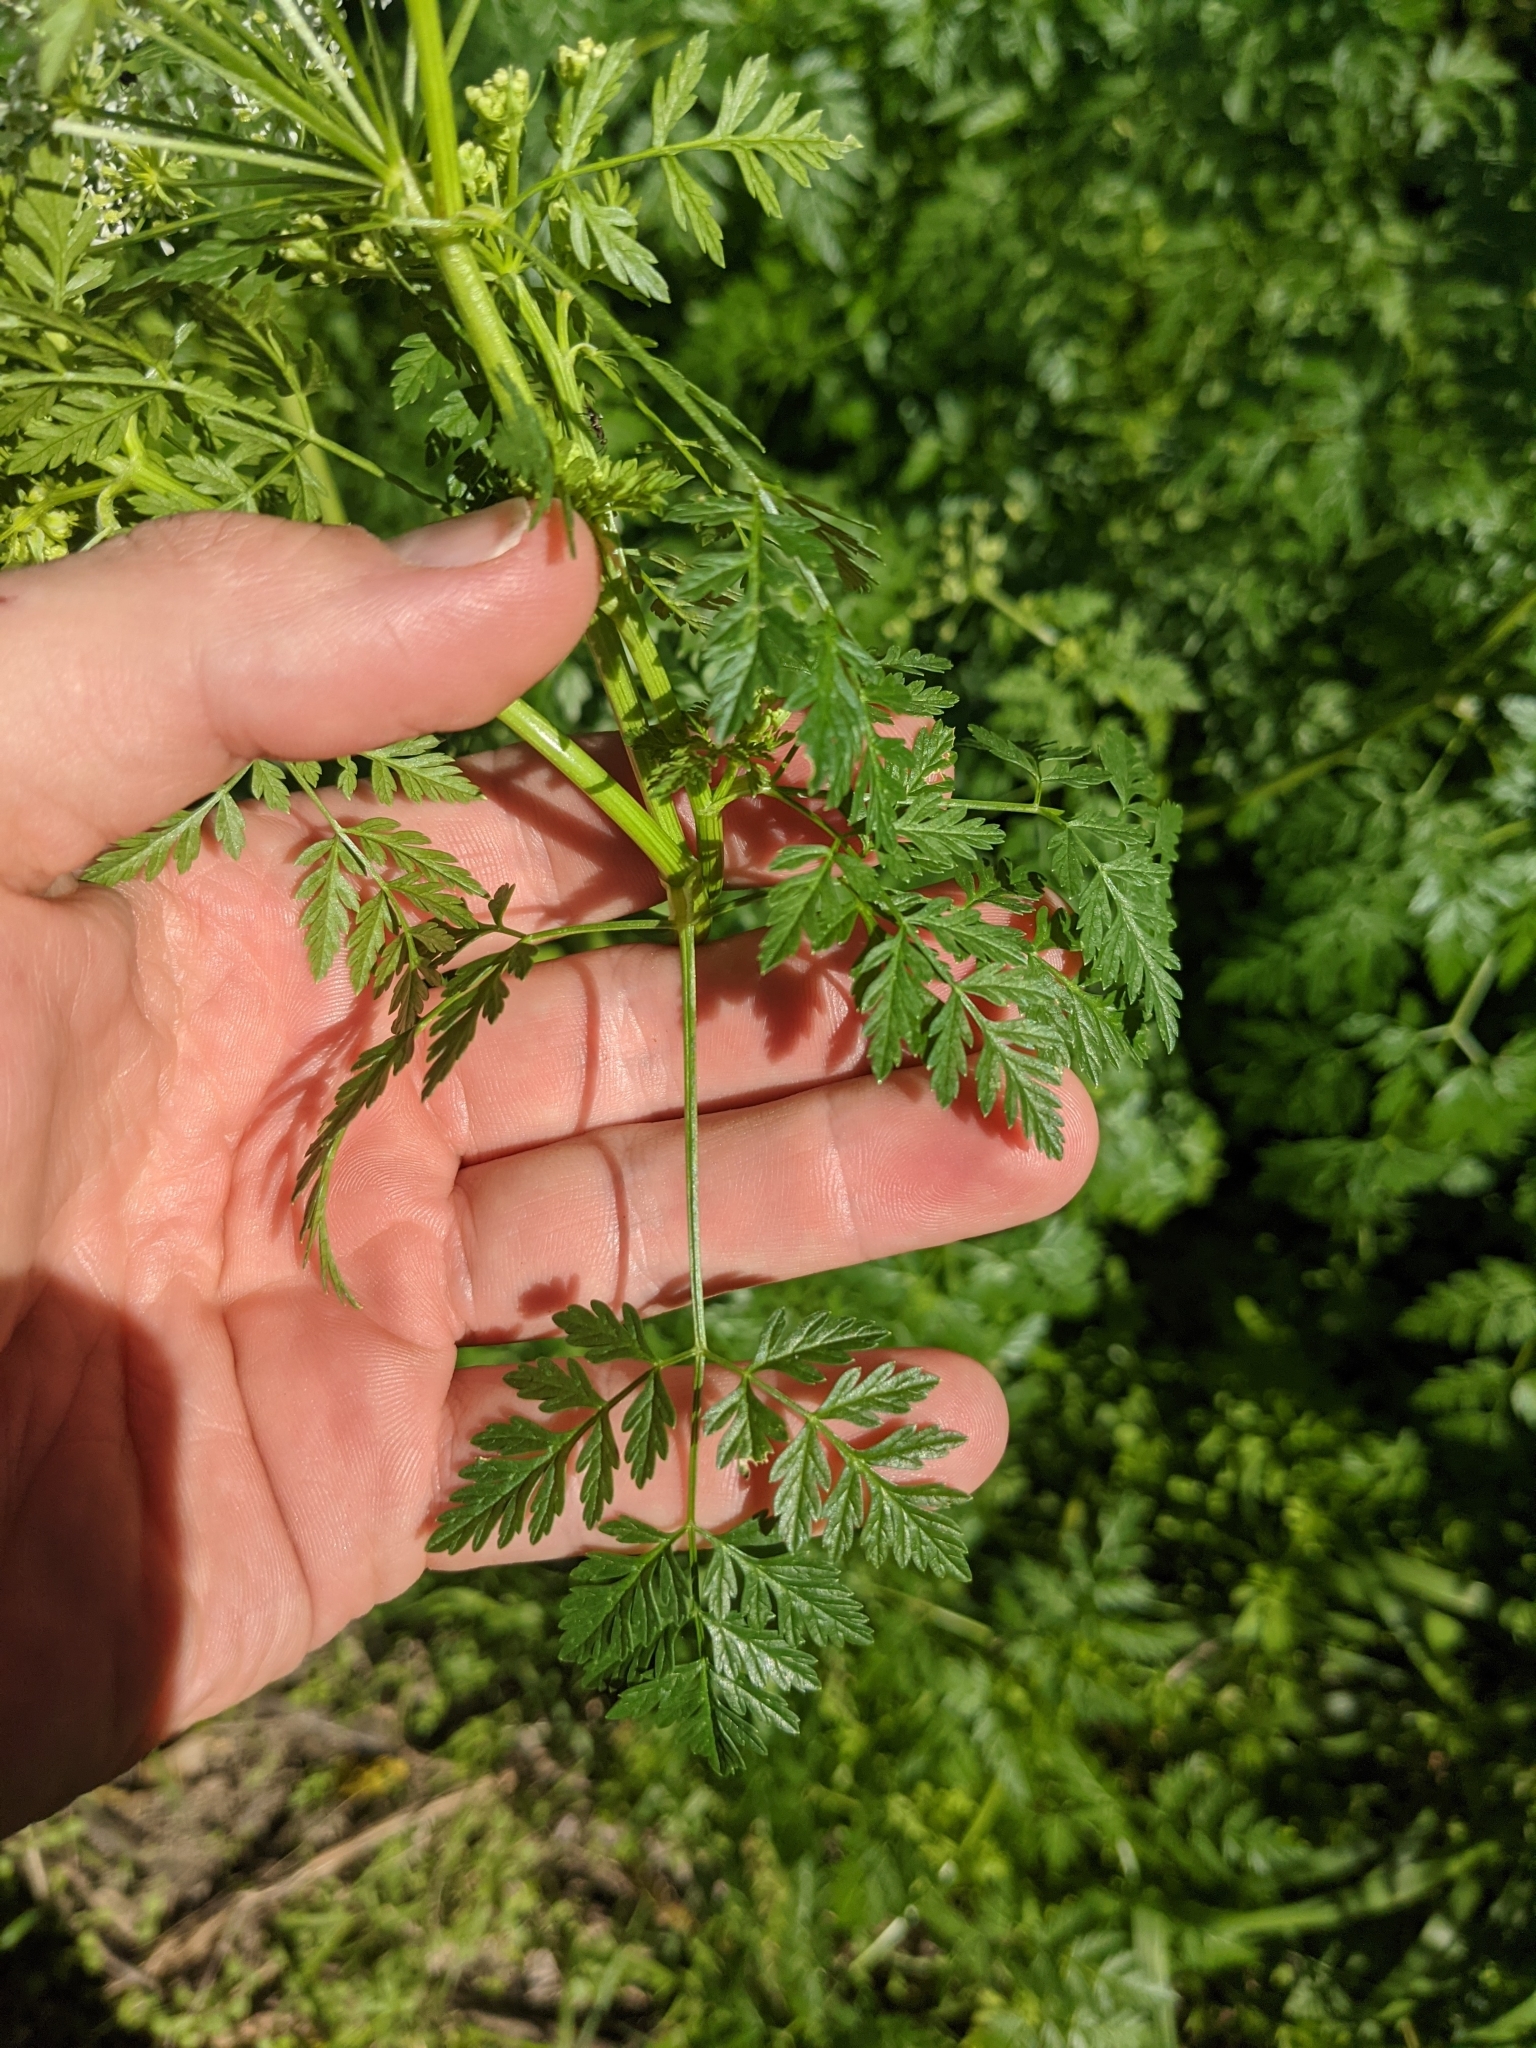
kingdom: Plantae
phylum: Tracheophyta
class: Magnoliopsida
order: Apiales
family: Apiaceae
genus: Conium
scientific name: Conium maculatum
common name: Hemlock
